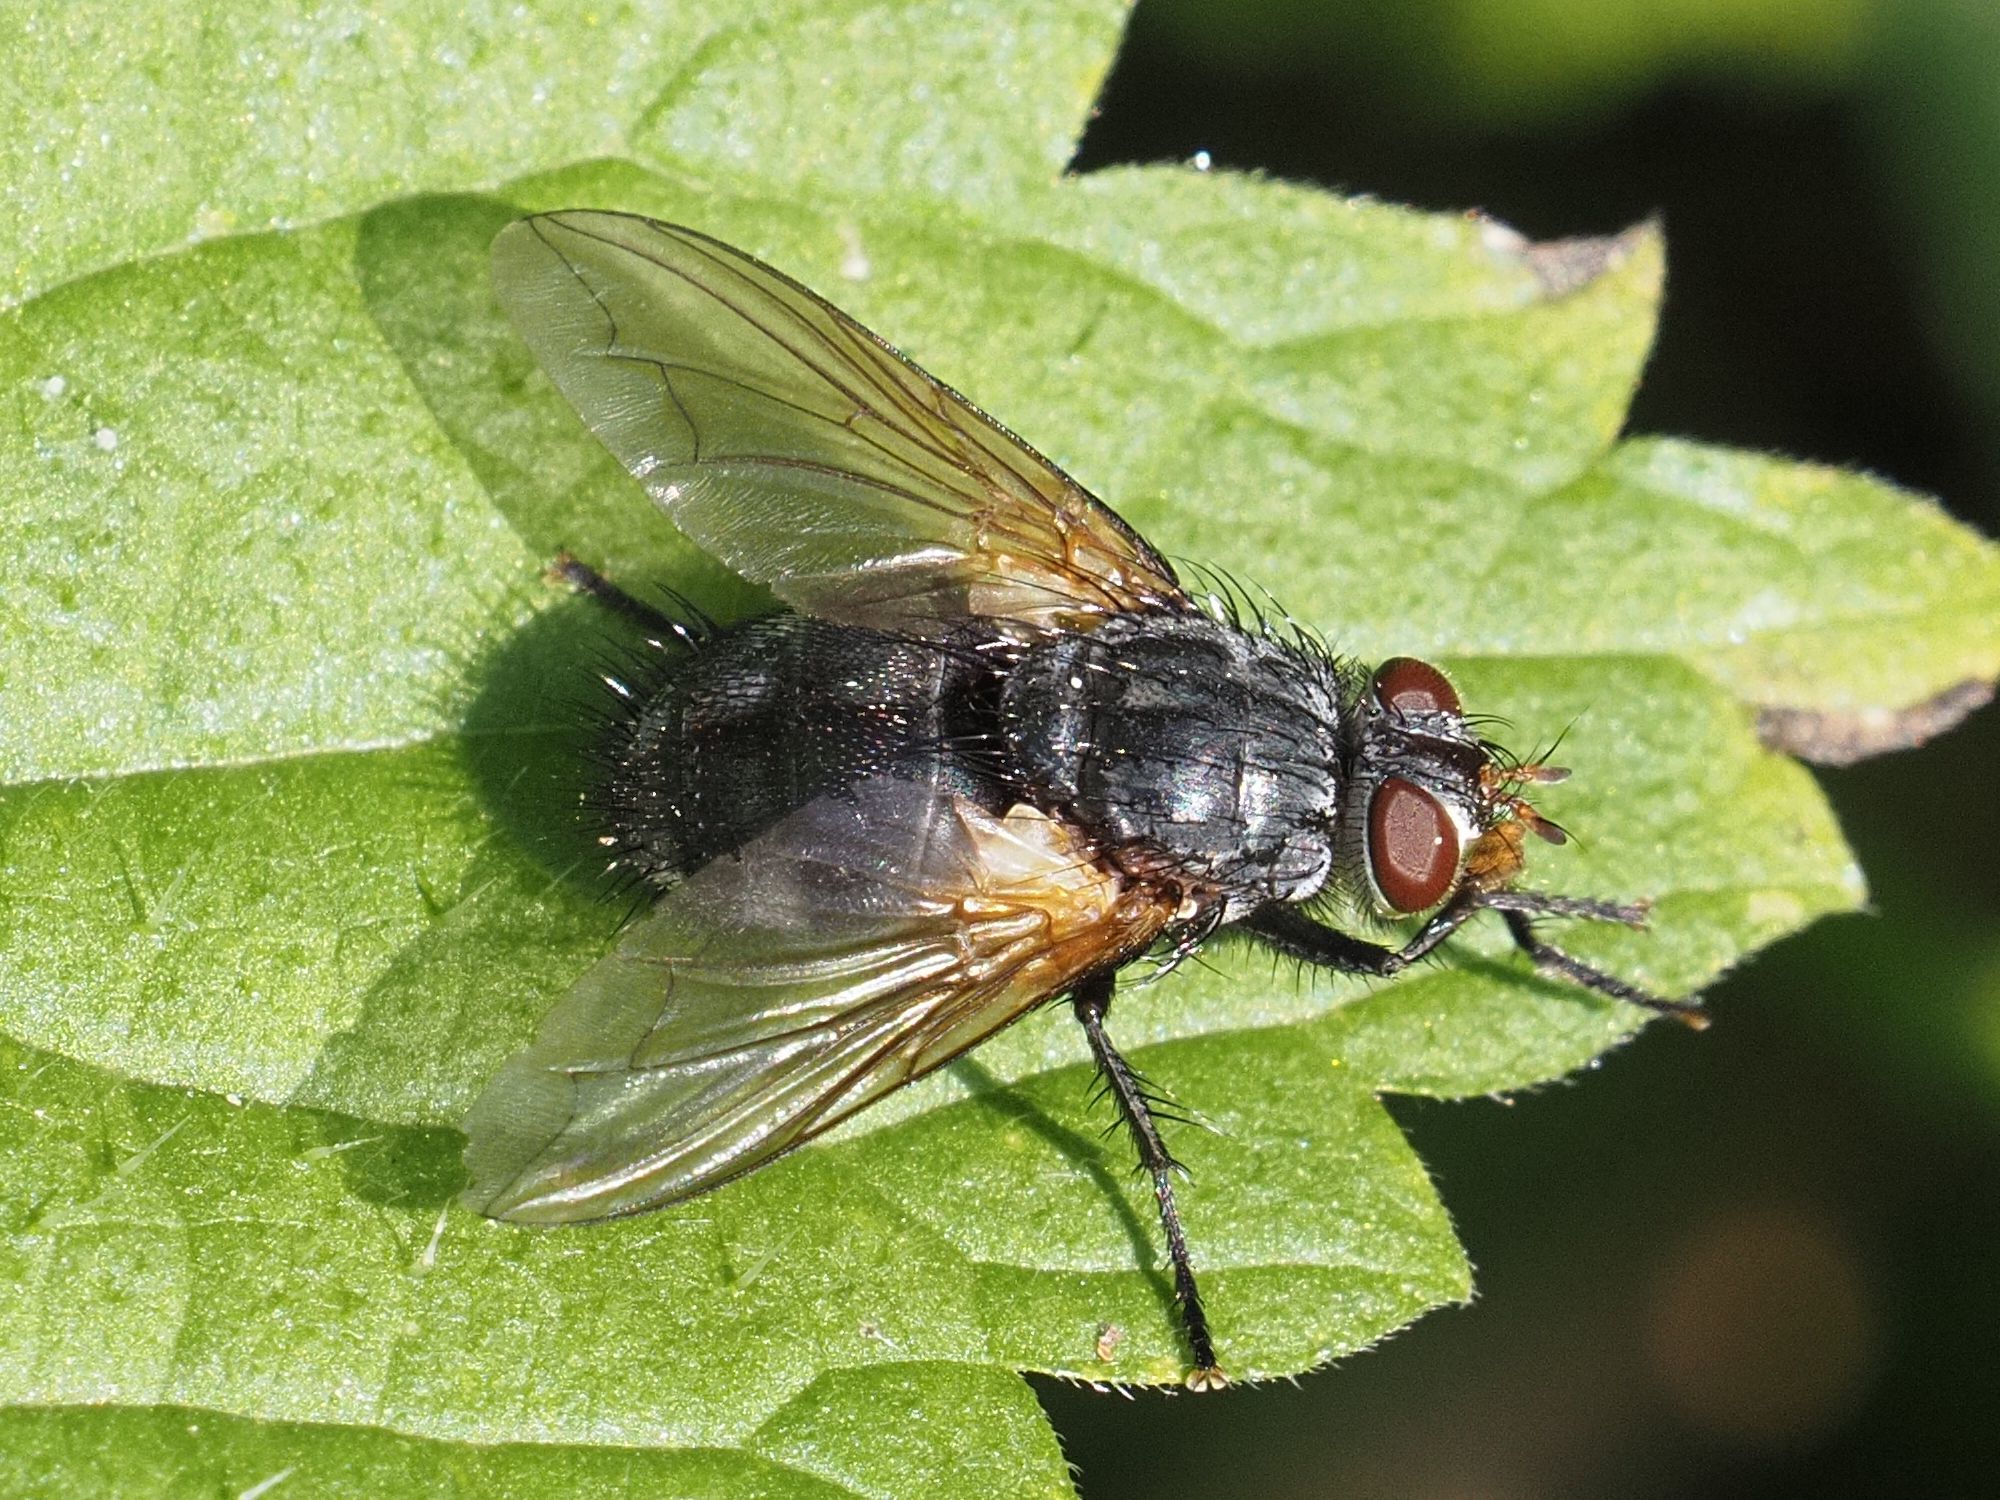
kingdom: Animalia
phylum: Arthropoda
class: Insecta
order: Diptera
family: Tachinidae
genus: Nemoraea
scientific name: Nemoraea pellucida
